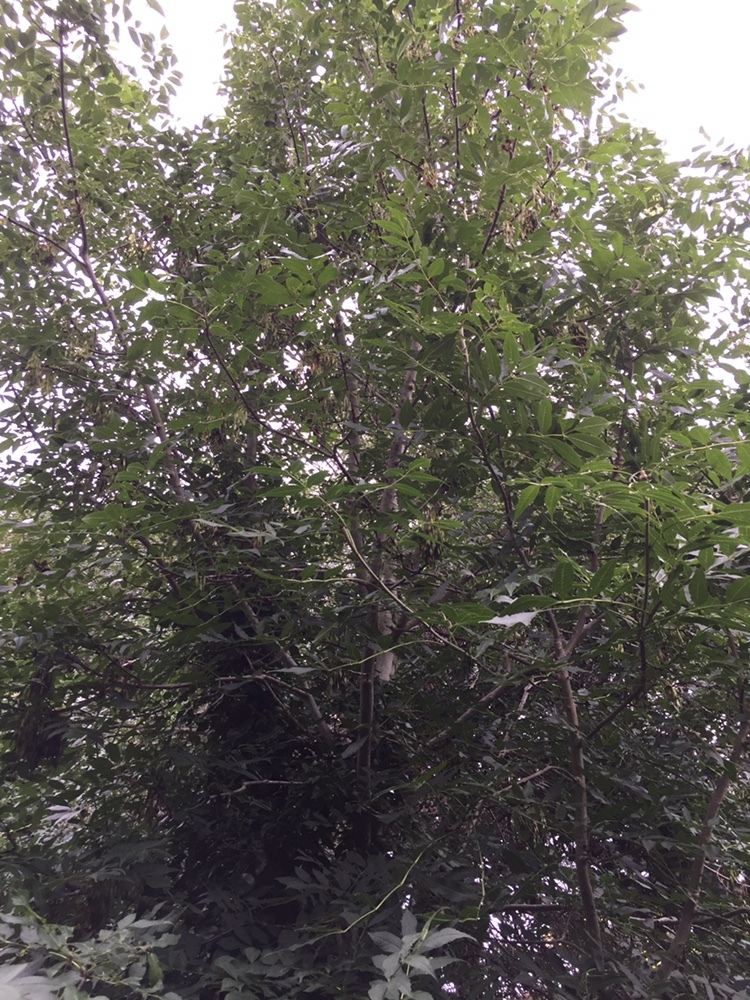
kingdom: Plantae
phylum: Tracheophyta
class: Magnoliopsida
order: Lamiales
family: Oleaceae
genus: Fraxinus
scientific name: Fraxinus excelsior
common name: European ash
